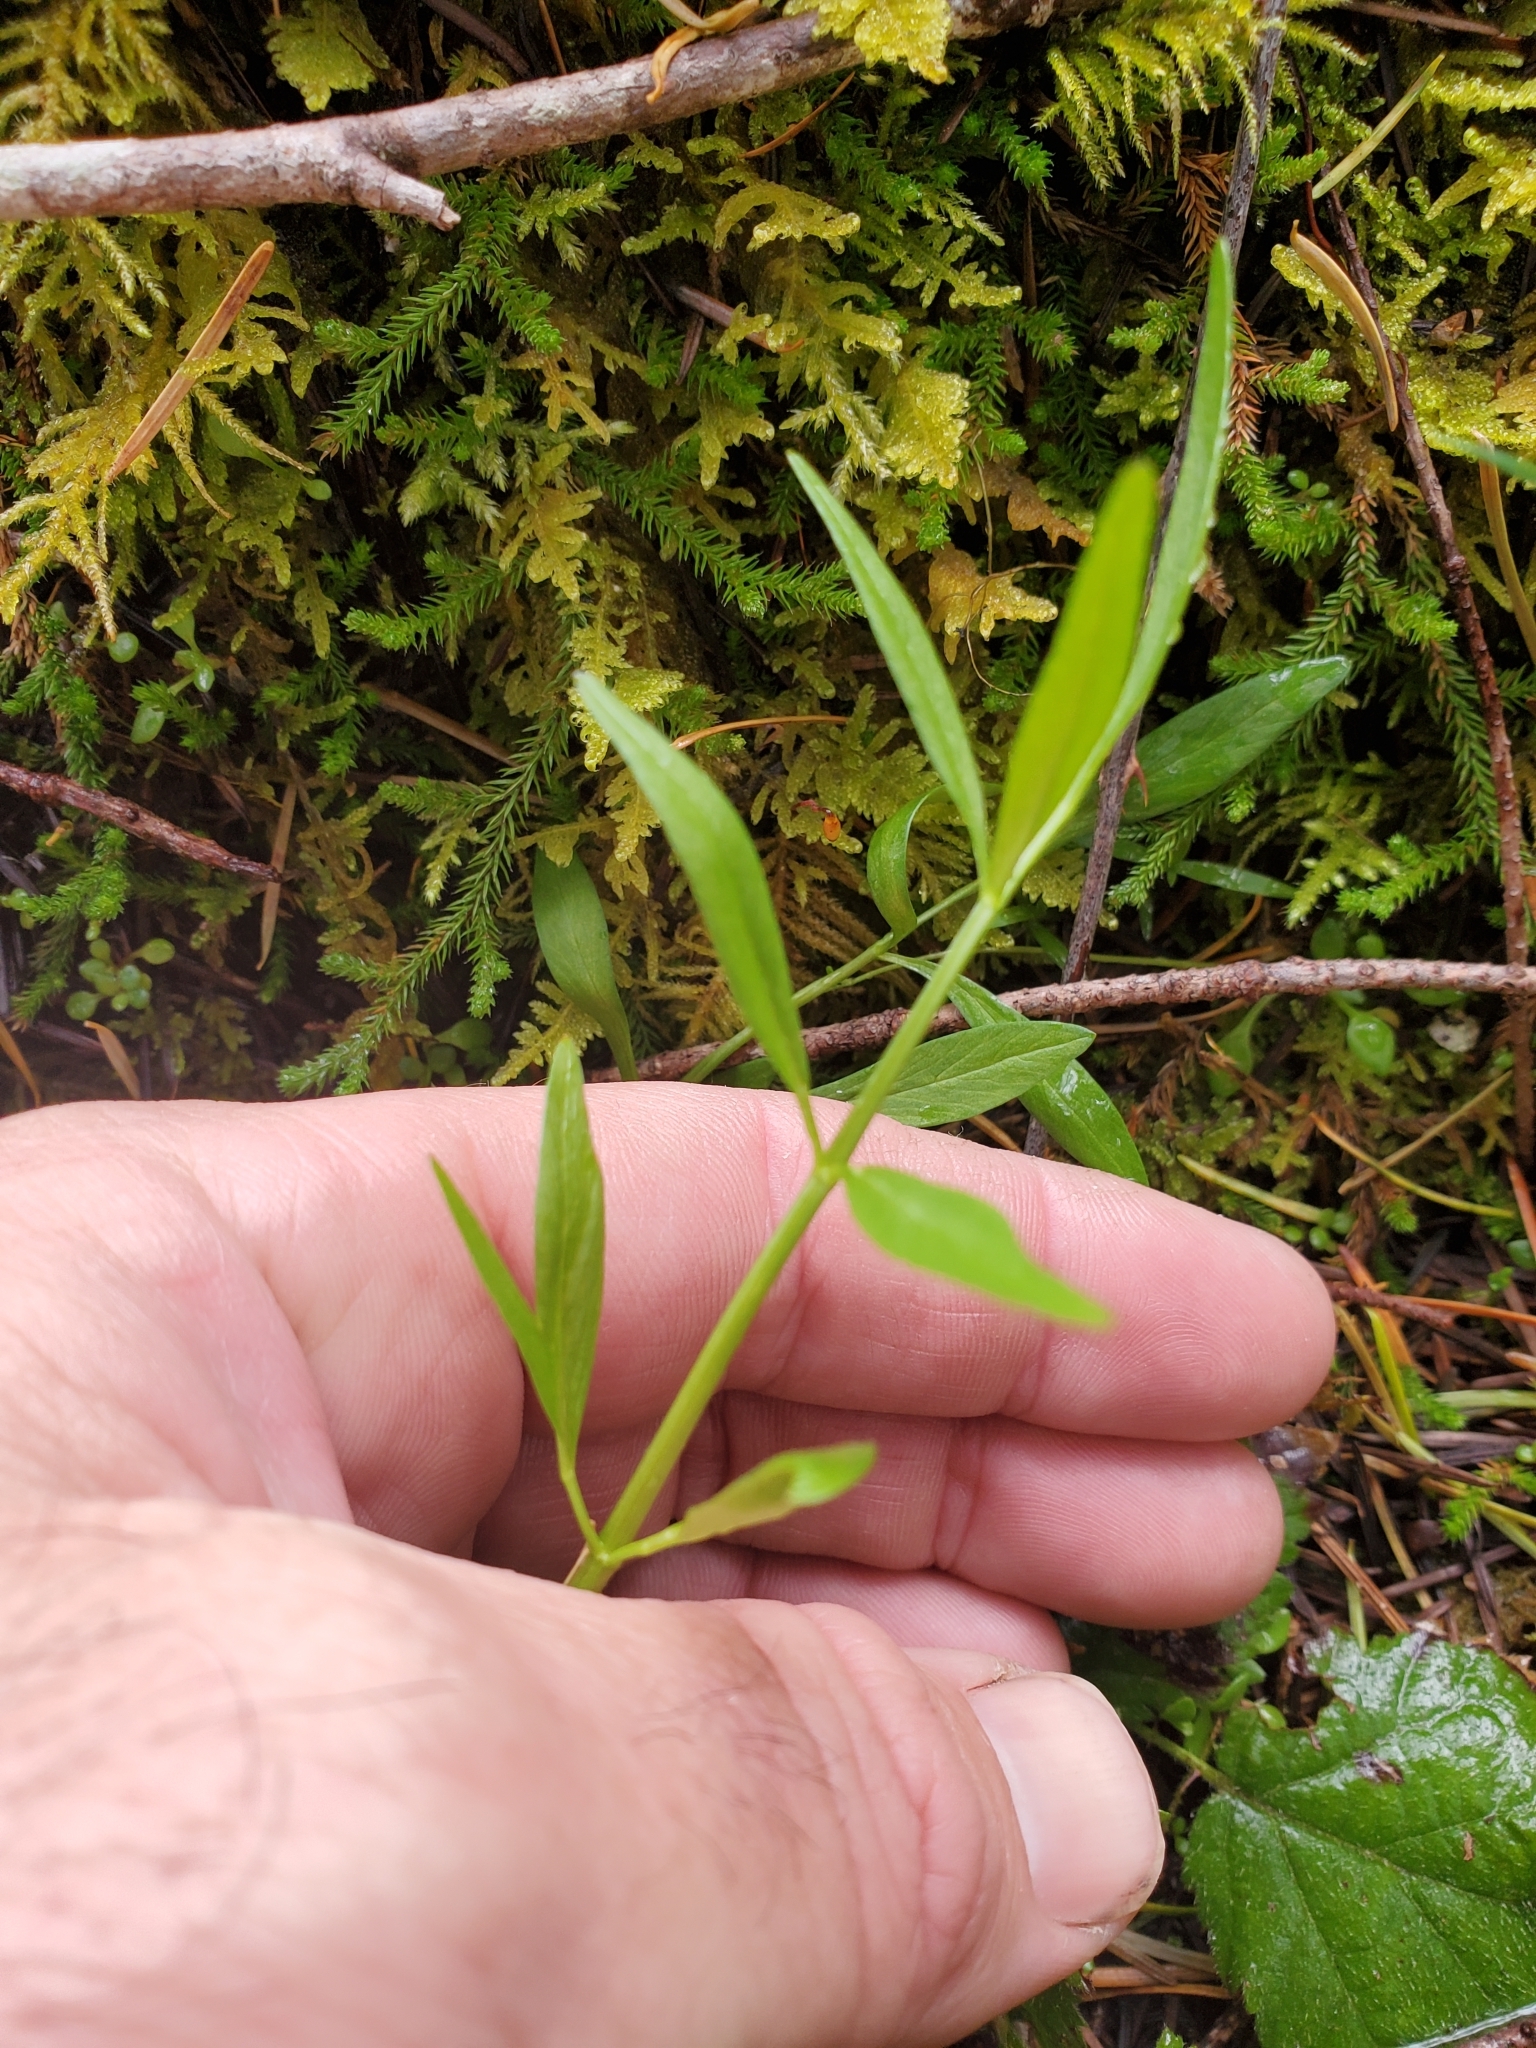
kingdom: Plantae
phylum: Tracheophyta
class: Magnoliopsida
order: Apiales
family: Apiaceae
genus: Perideridia
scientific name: Perideridia gairdneri
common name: False caraway
